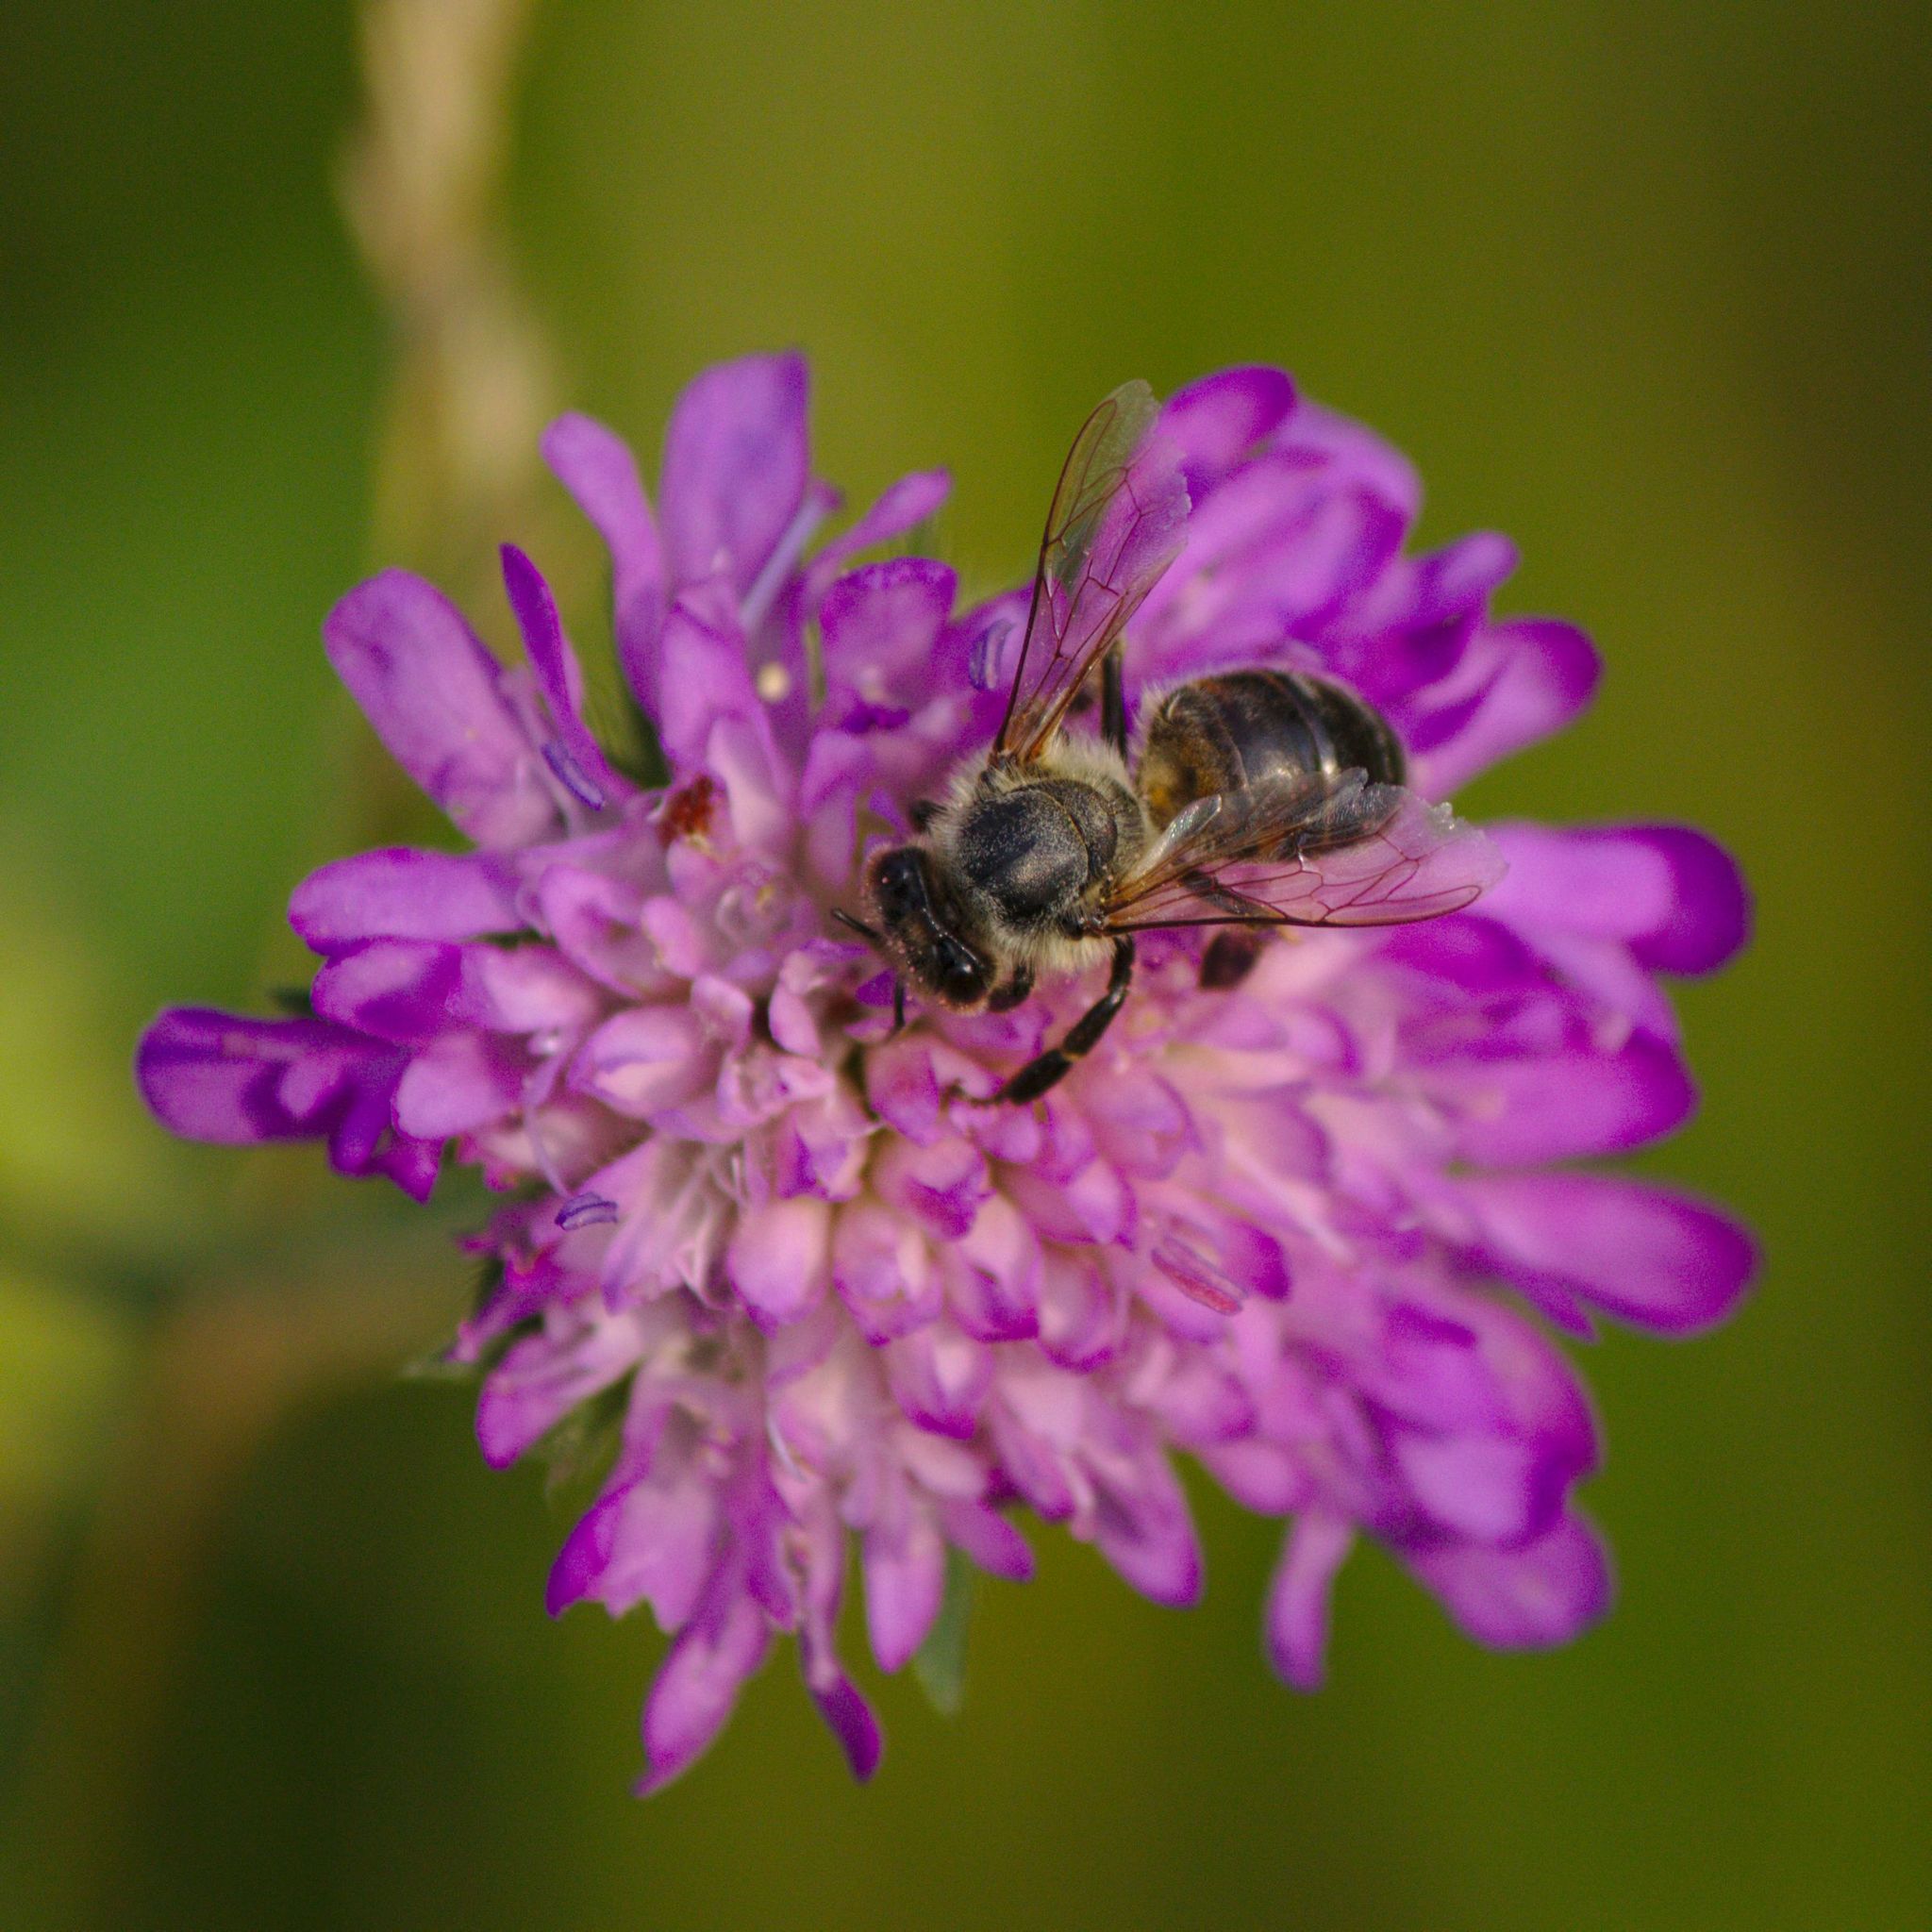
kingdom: Animalia
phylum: Arthropoda
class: Insecta
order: Hymenoptera
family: Apidae
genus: Apis
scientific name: Apis mellifera
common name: Honey bee
